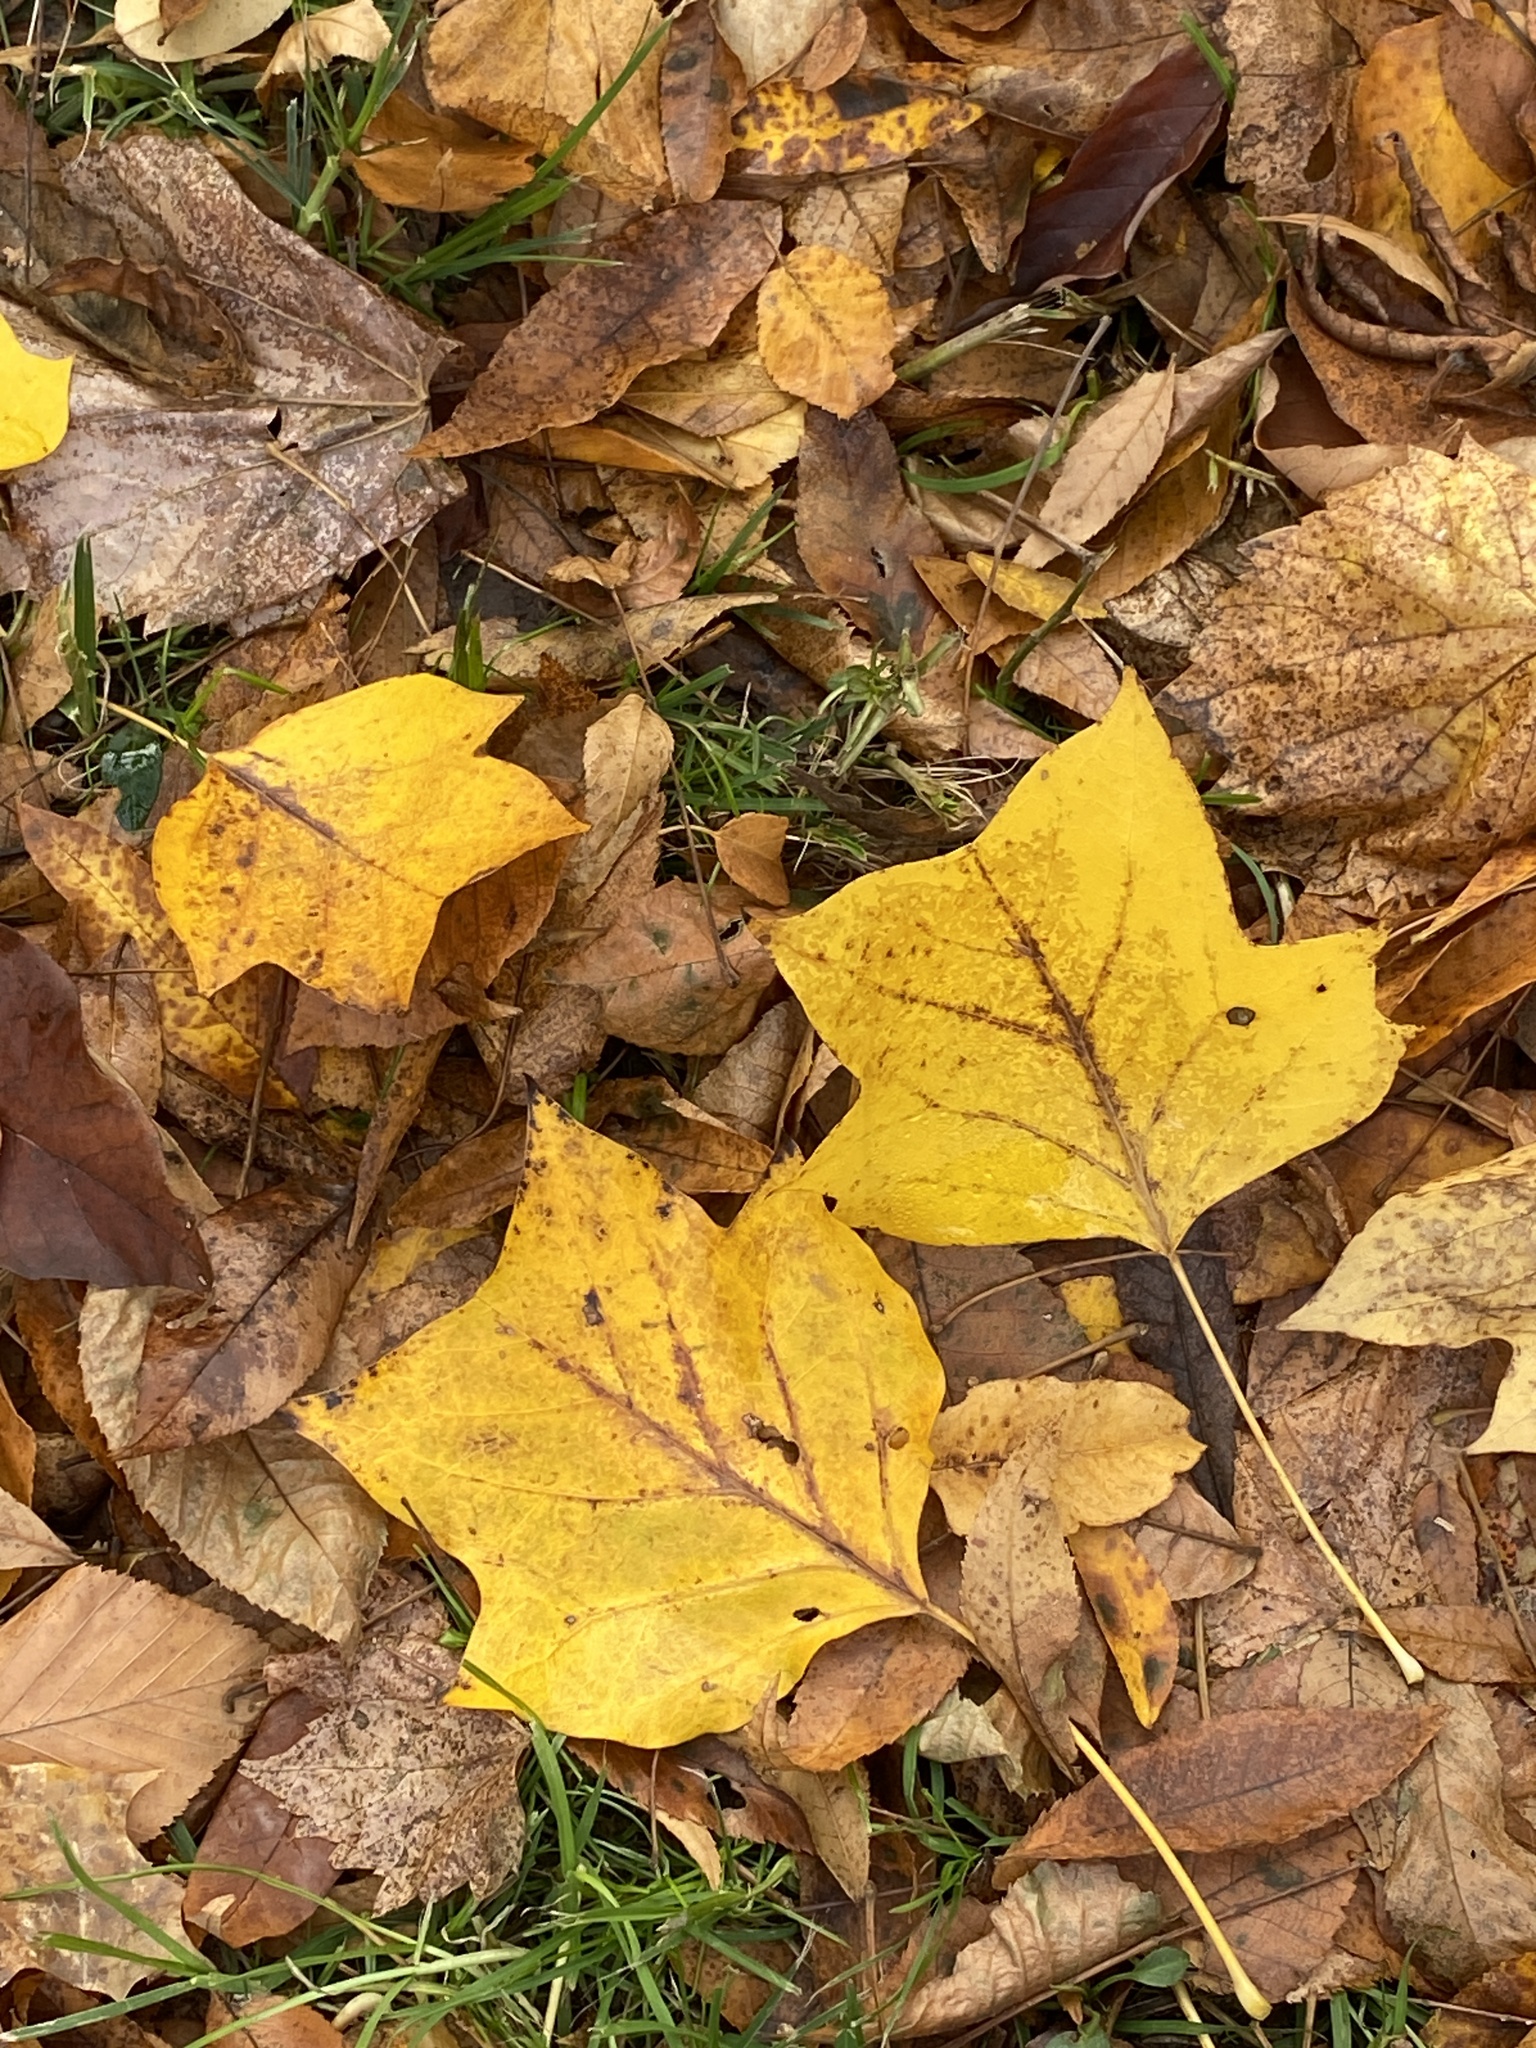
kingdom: Plantae
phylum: Tracheophyta
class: Magnoliopsida
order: Magnoliales
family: Magnoliaceae
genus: Liriodendron
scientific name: Liriodendron tulipifera
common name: Tulip tree
